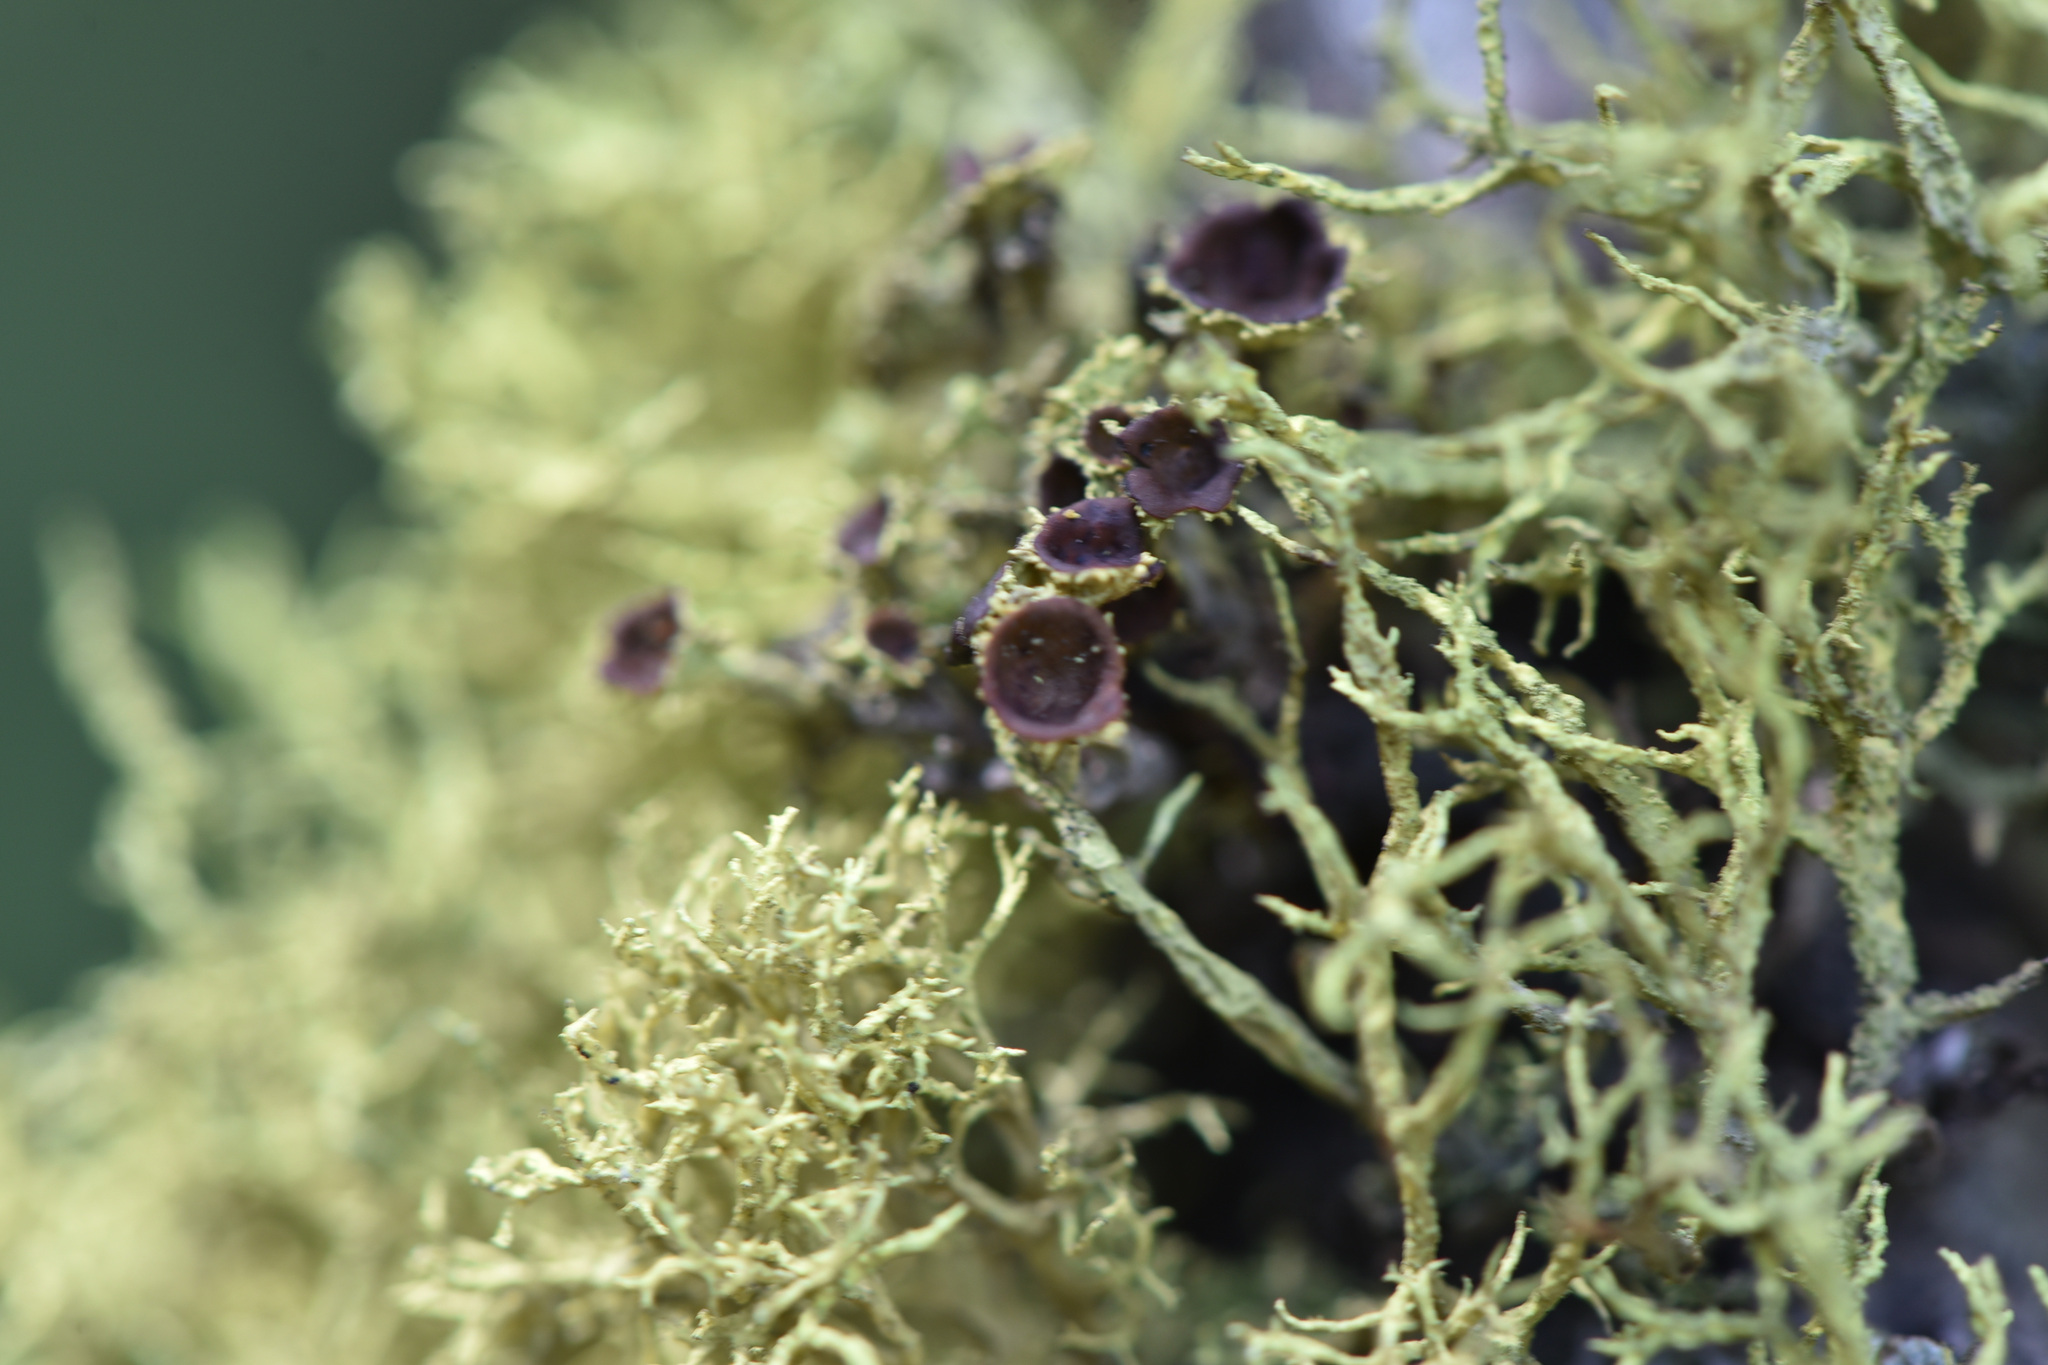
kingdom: Fungi
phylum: Ascomycota
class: Lecanoromycetes
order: Lecanorales
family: Parmeliaceae
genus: Letharia
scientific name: Letharia columbiana
